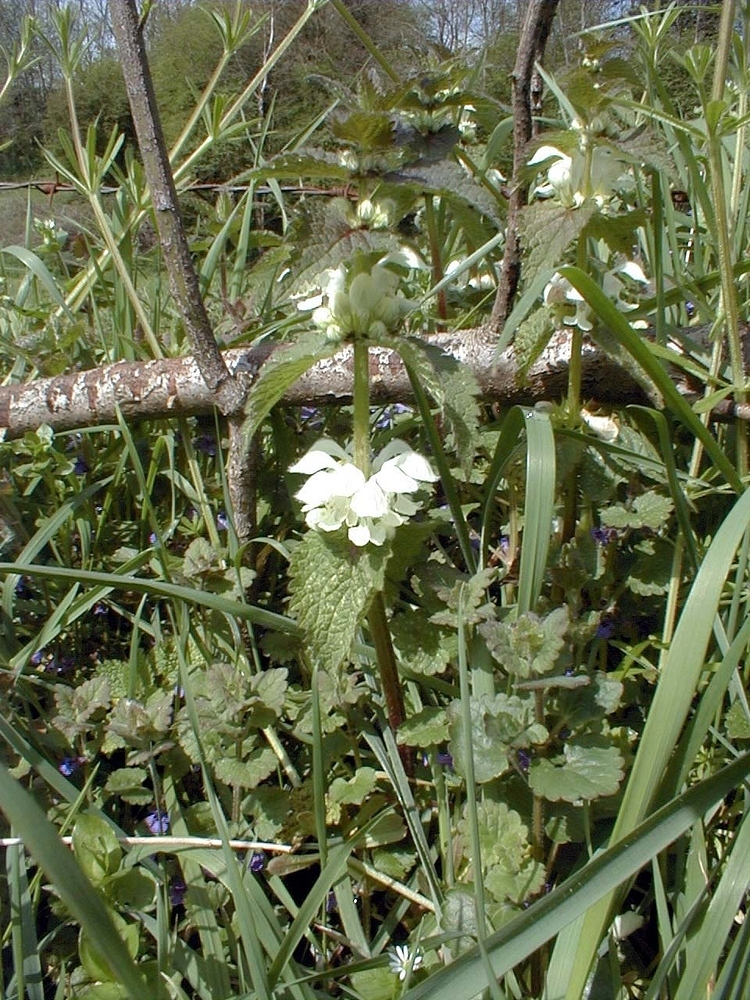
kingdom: Plantae
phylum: Tracheophyta
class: Magnoliopsida
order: Lamiales
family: Lamiaceae
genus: Lamium
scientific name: Lamium album
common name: White dead-nettle
